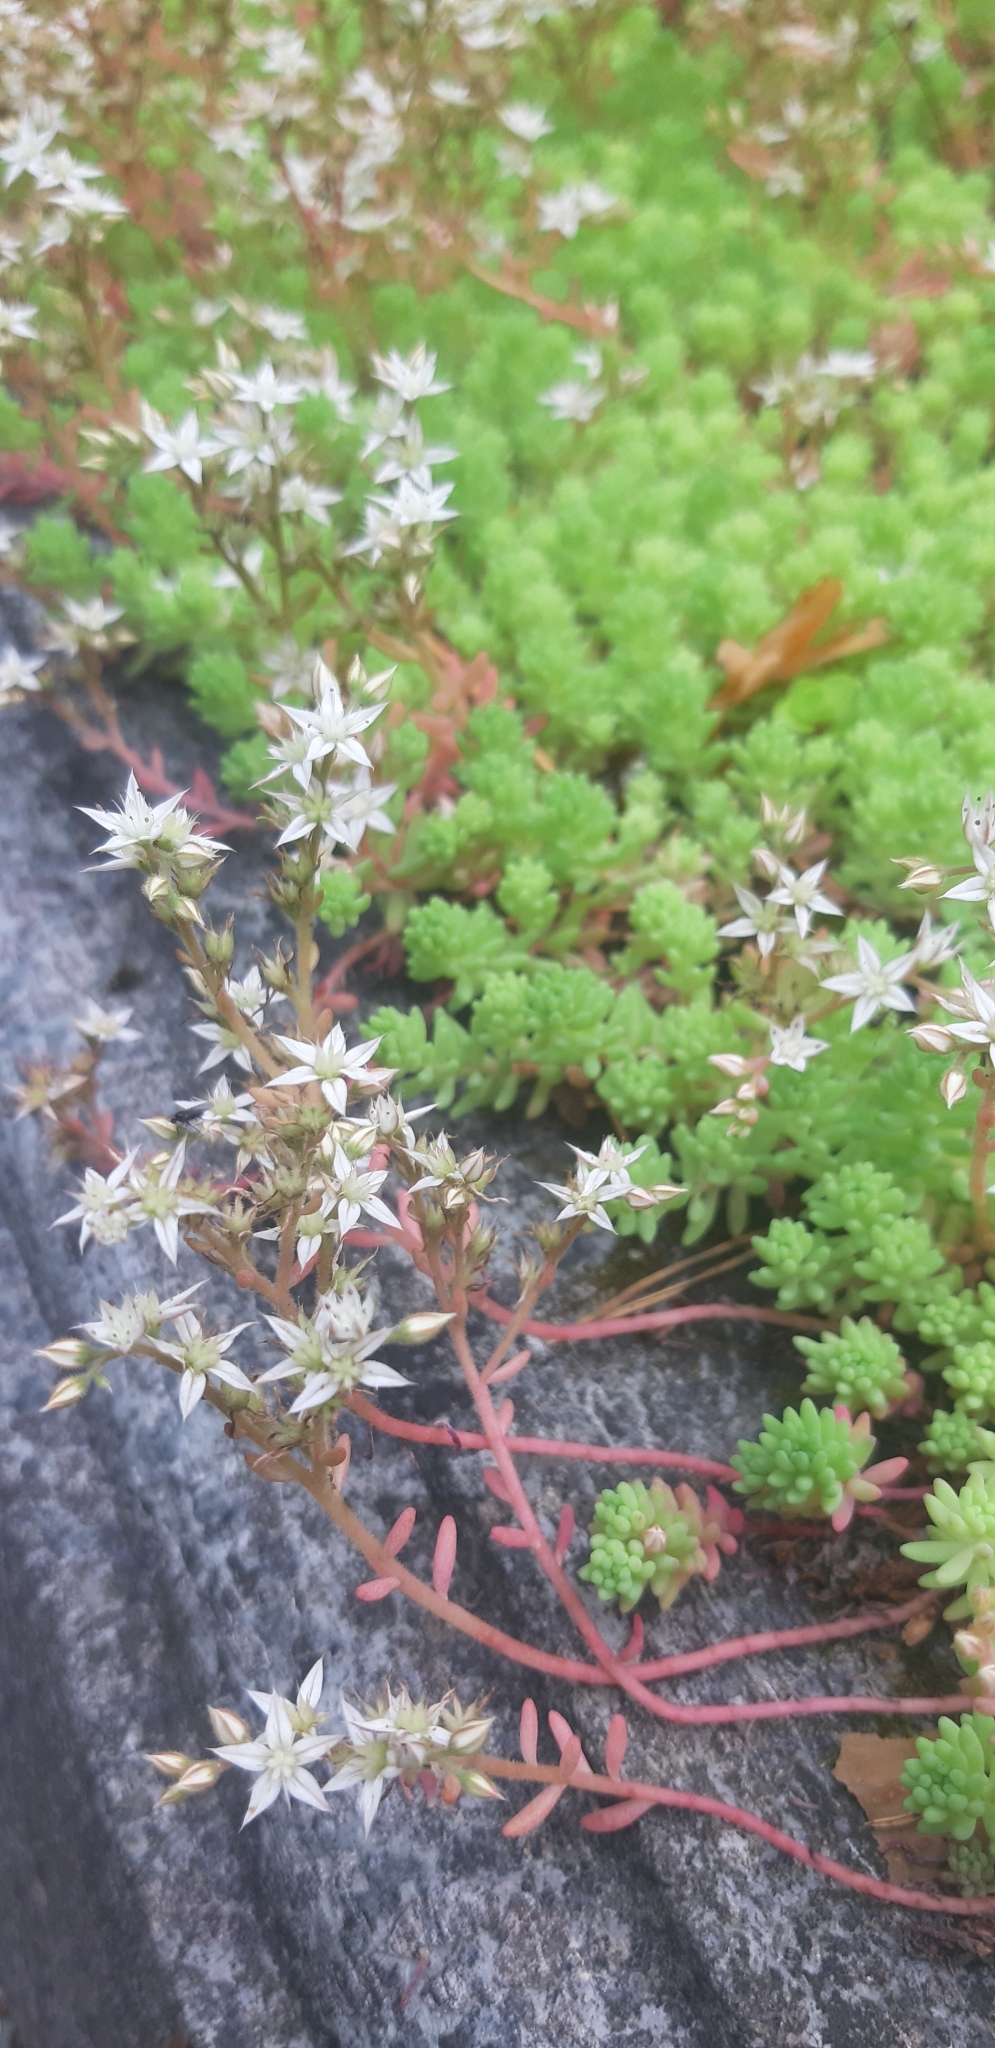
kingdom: Plantae
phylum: Tracheophyta
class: Magnoliopsida
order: Saxifragales
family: Crassulaceae
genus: Sedum
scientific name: Sedum pallidum
